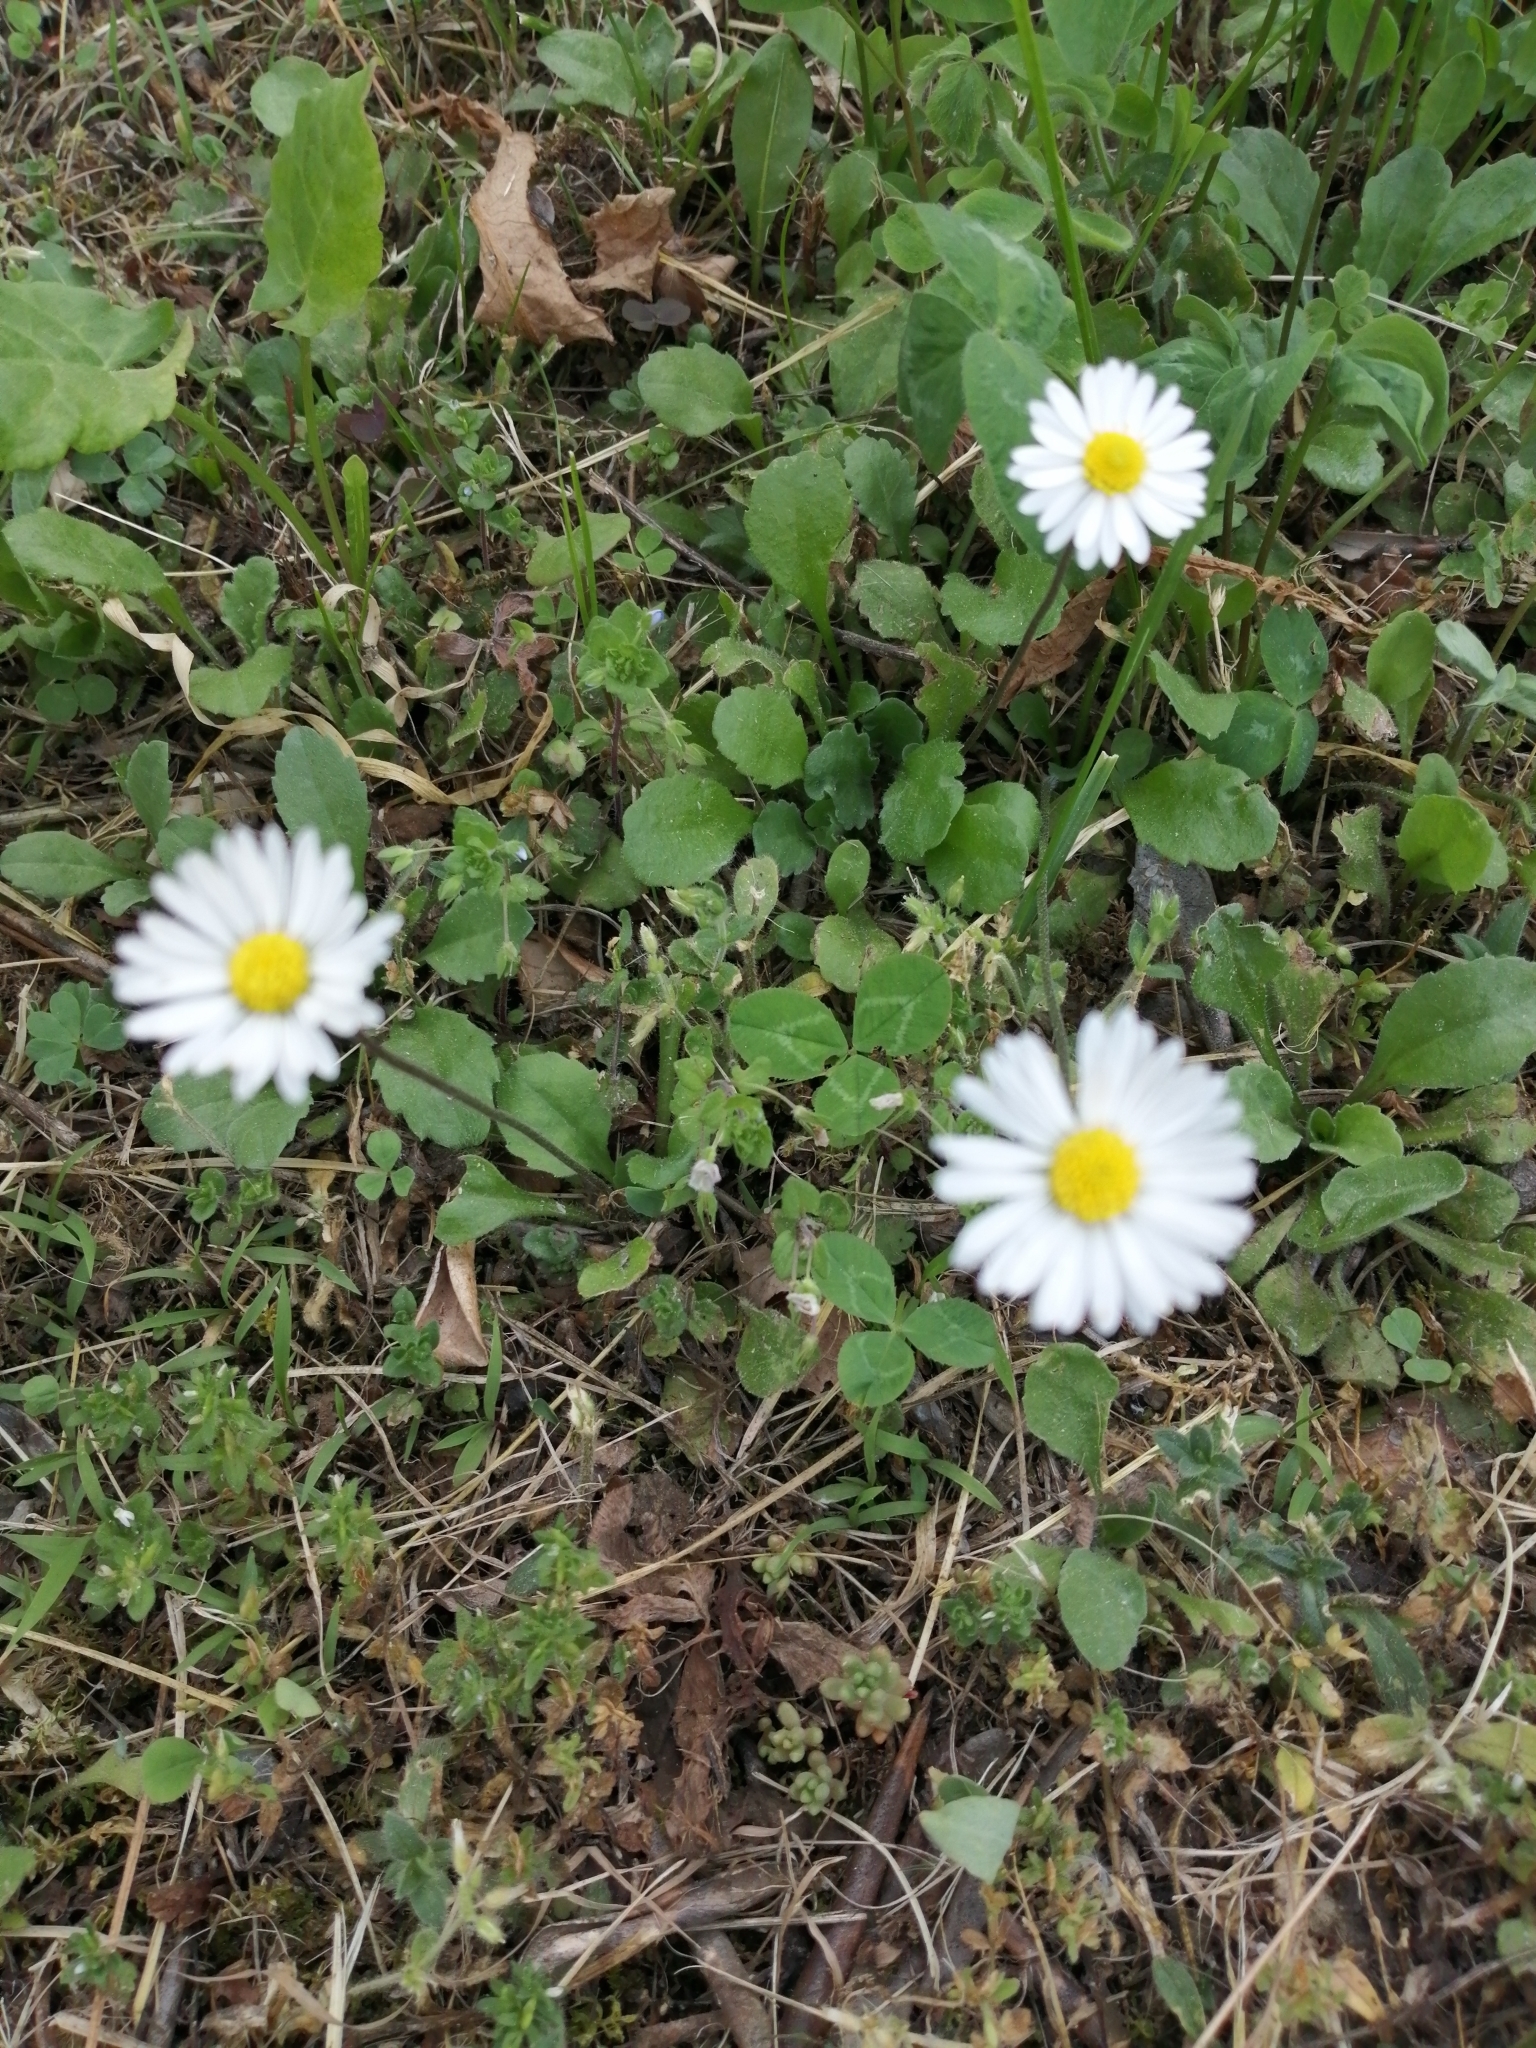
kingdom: Plantae
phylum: Tracheophyta
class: Magnoliopsida
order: Asterales
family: Asteraceae
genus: Bellis
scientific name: Bellis perennis
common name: Lawndaisy
